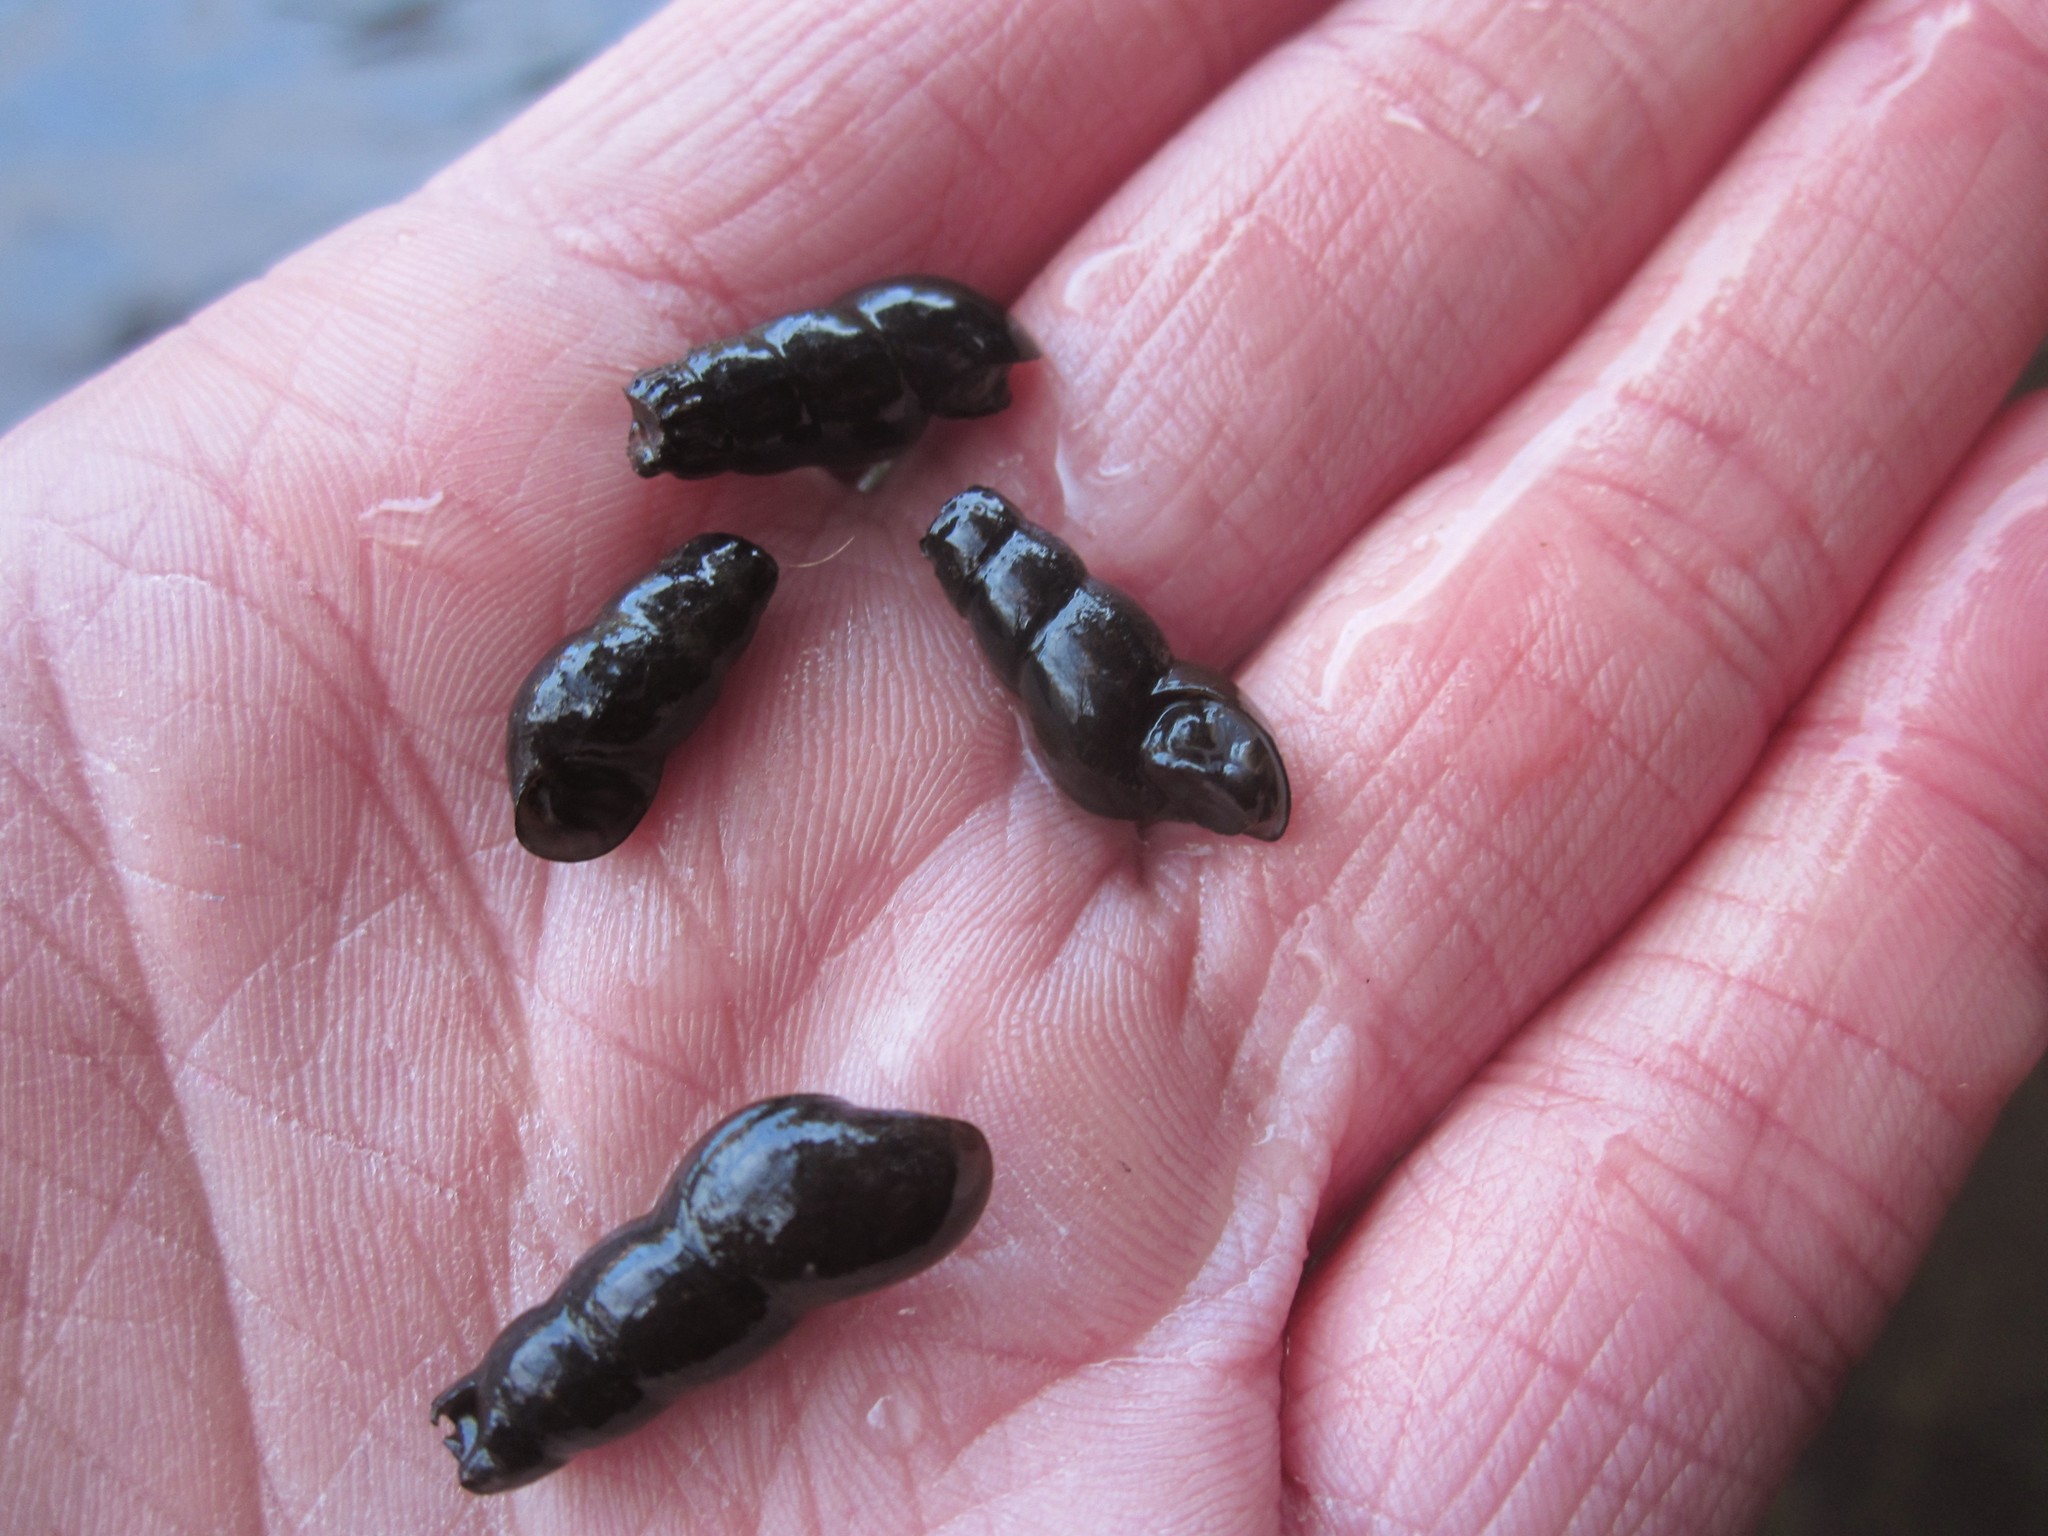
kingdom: Animalia
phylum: Mollusca
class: Gastropoda
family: Semisulcospiridae
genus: Juga
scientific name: Juga plicifera
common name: Pleated juga
